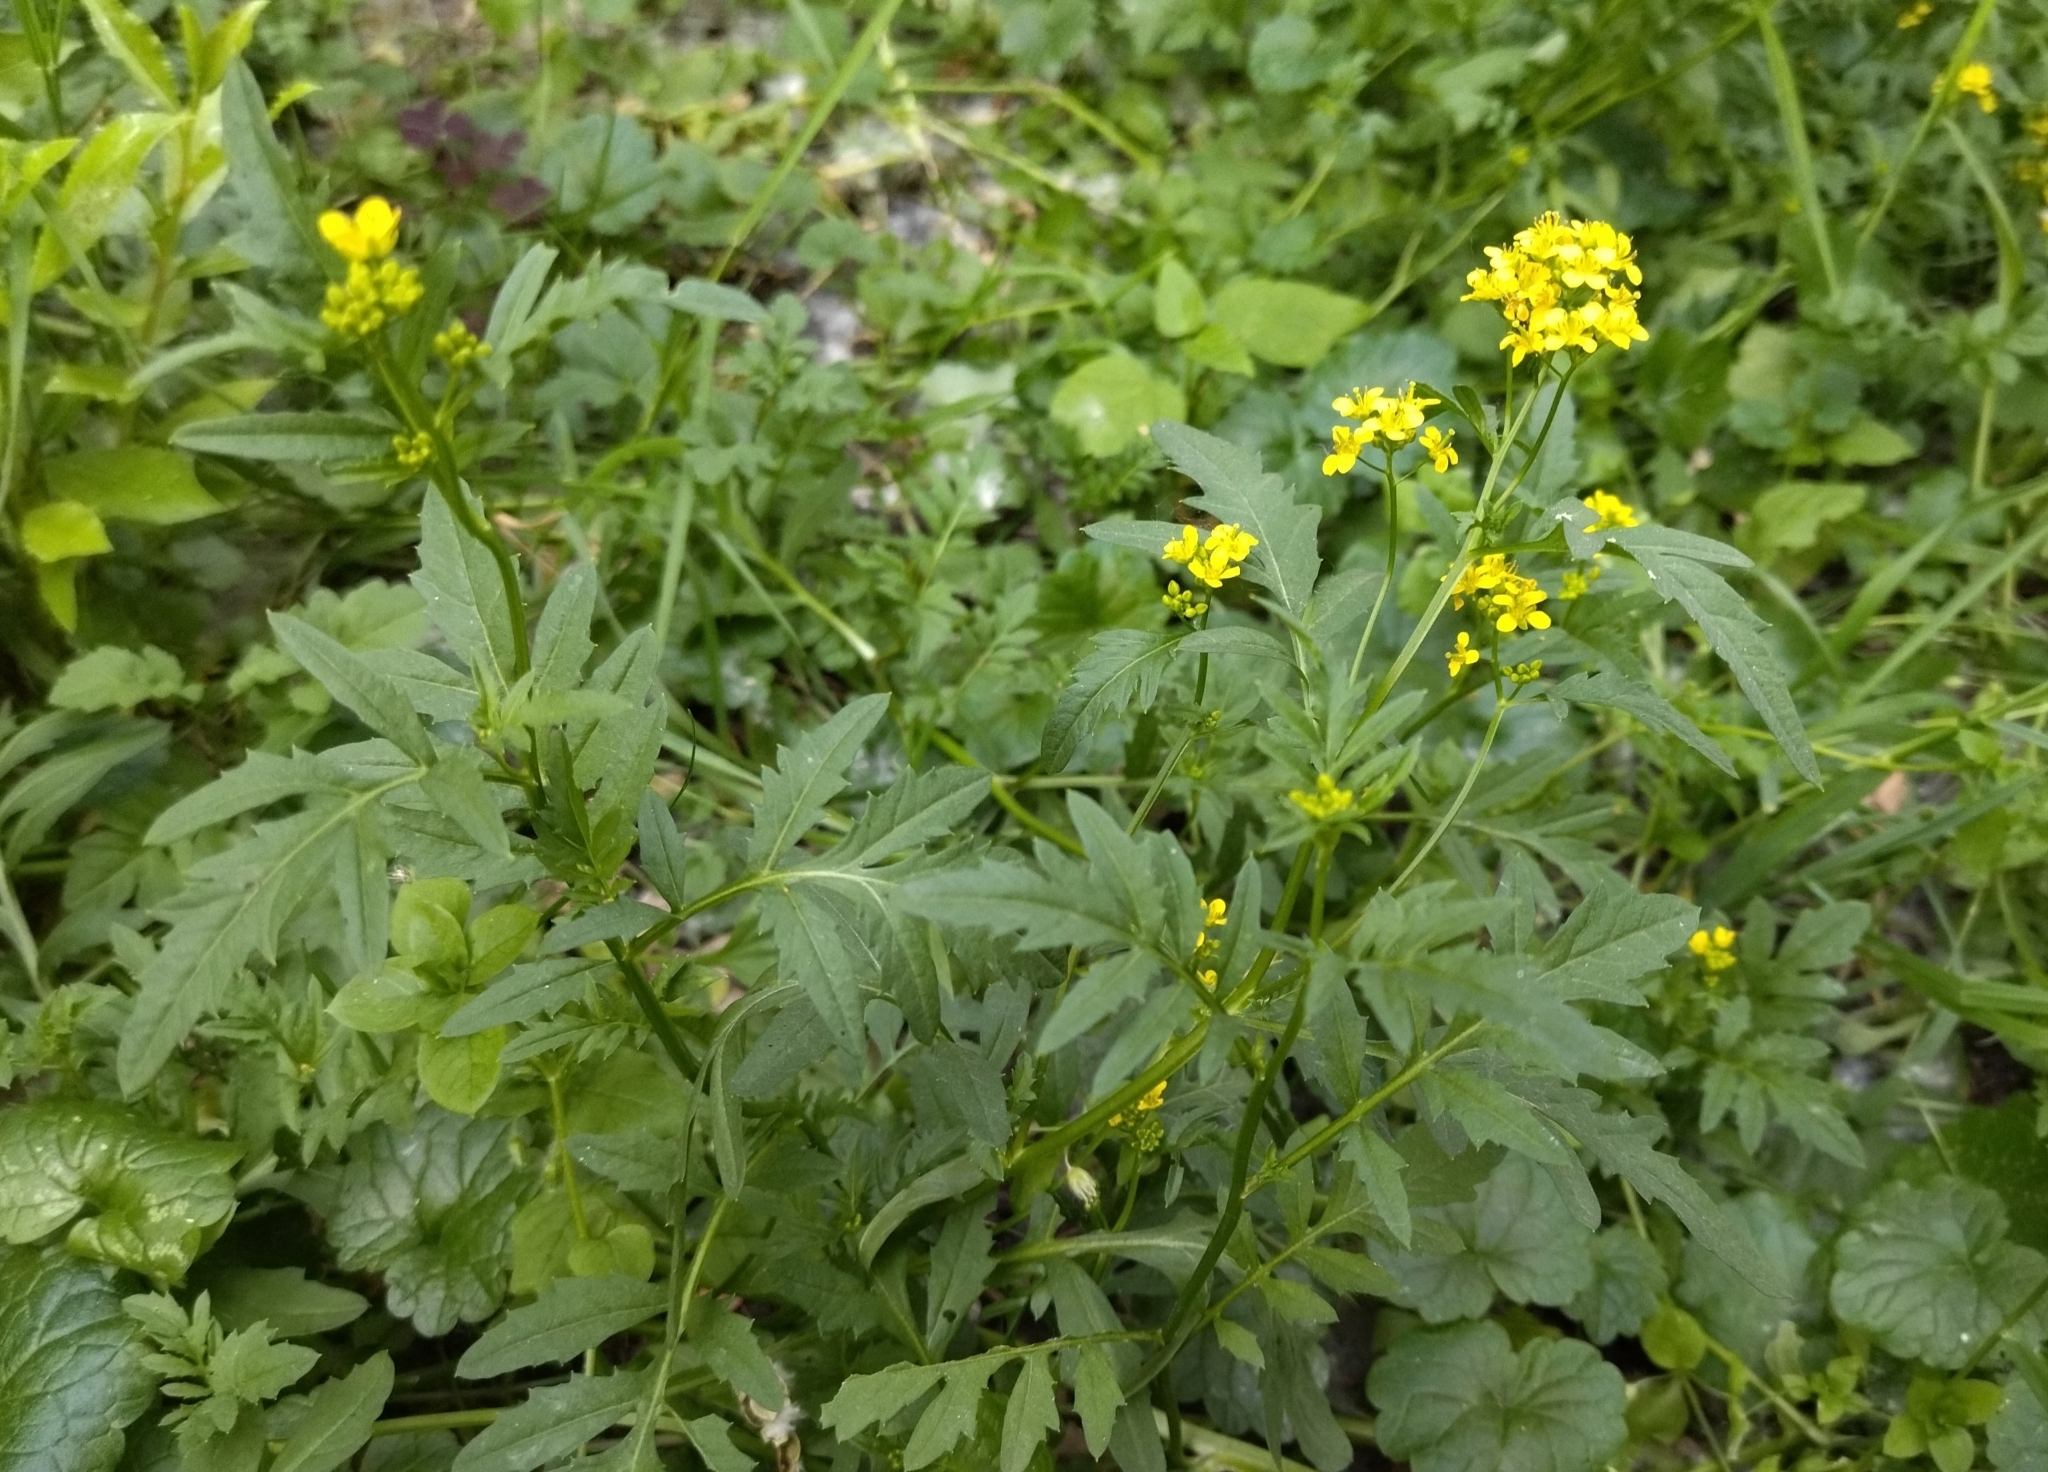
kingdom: Plantae
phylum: Tracheophyta
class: Magnoliopsida
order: Brassicales
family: Brassicaceae
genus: Rorippa
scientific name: Rorippa sylvestris
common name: Creeping yellowcress
